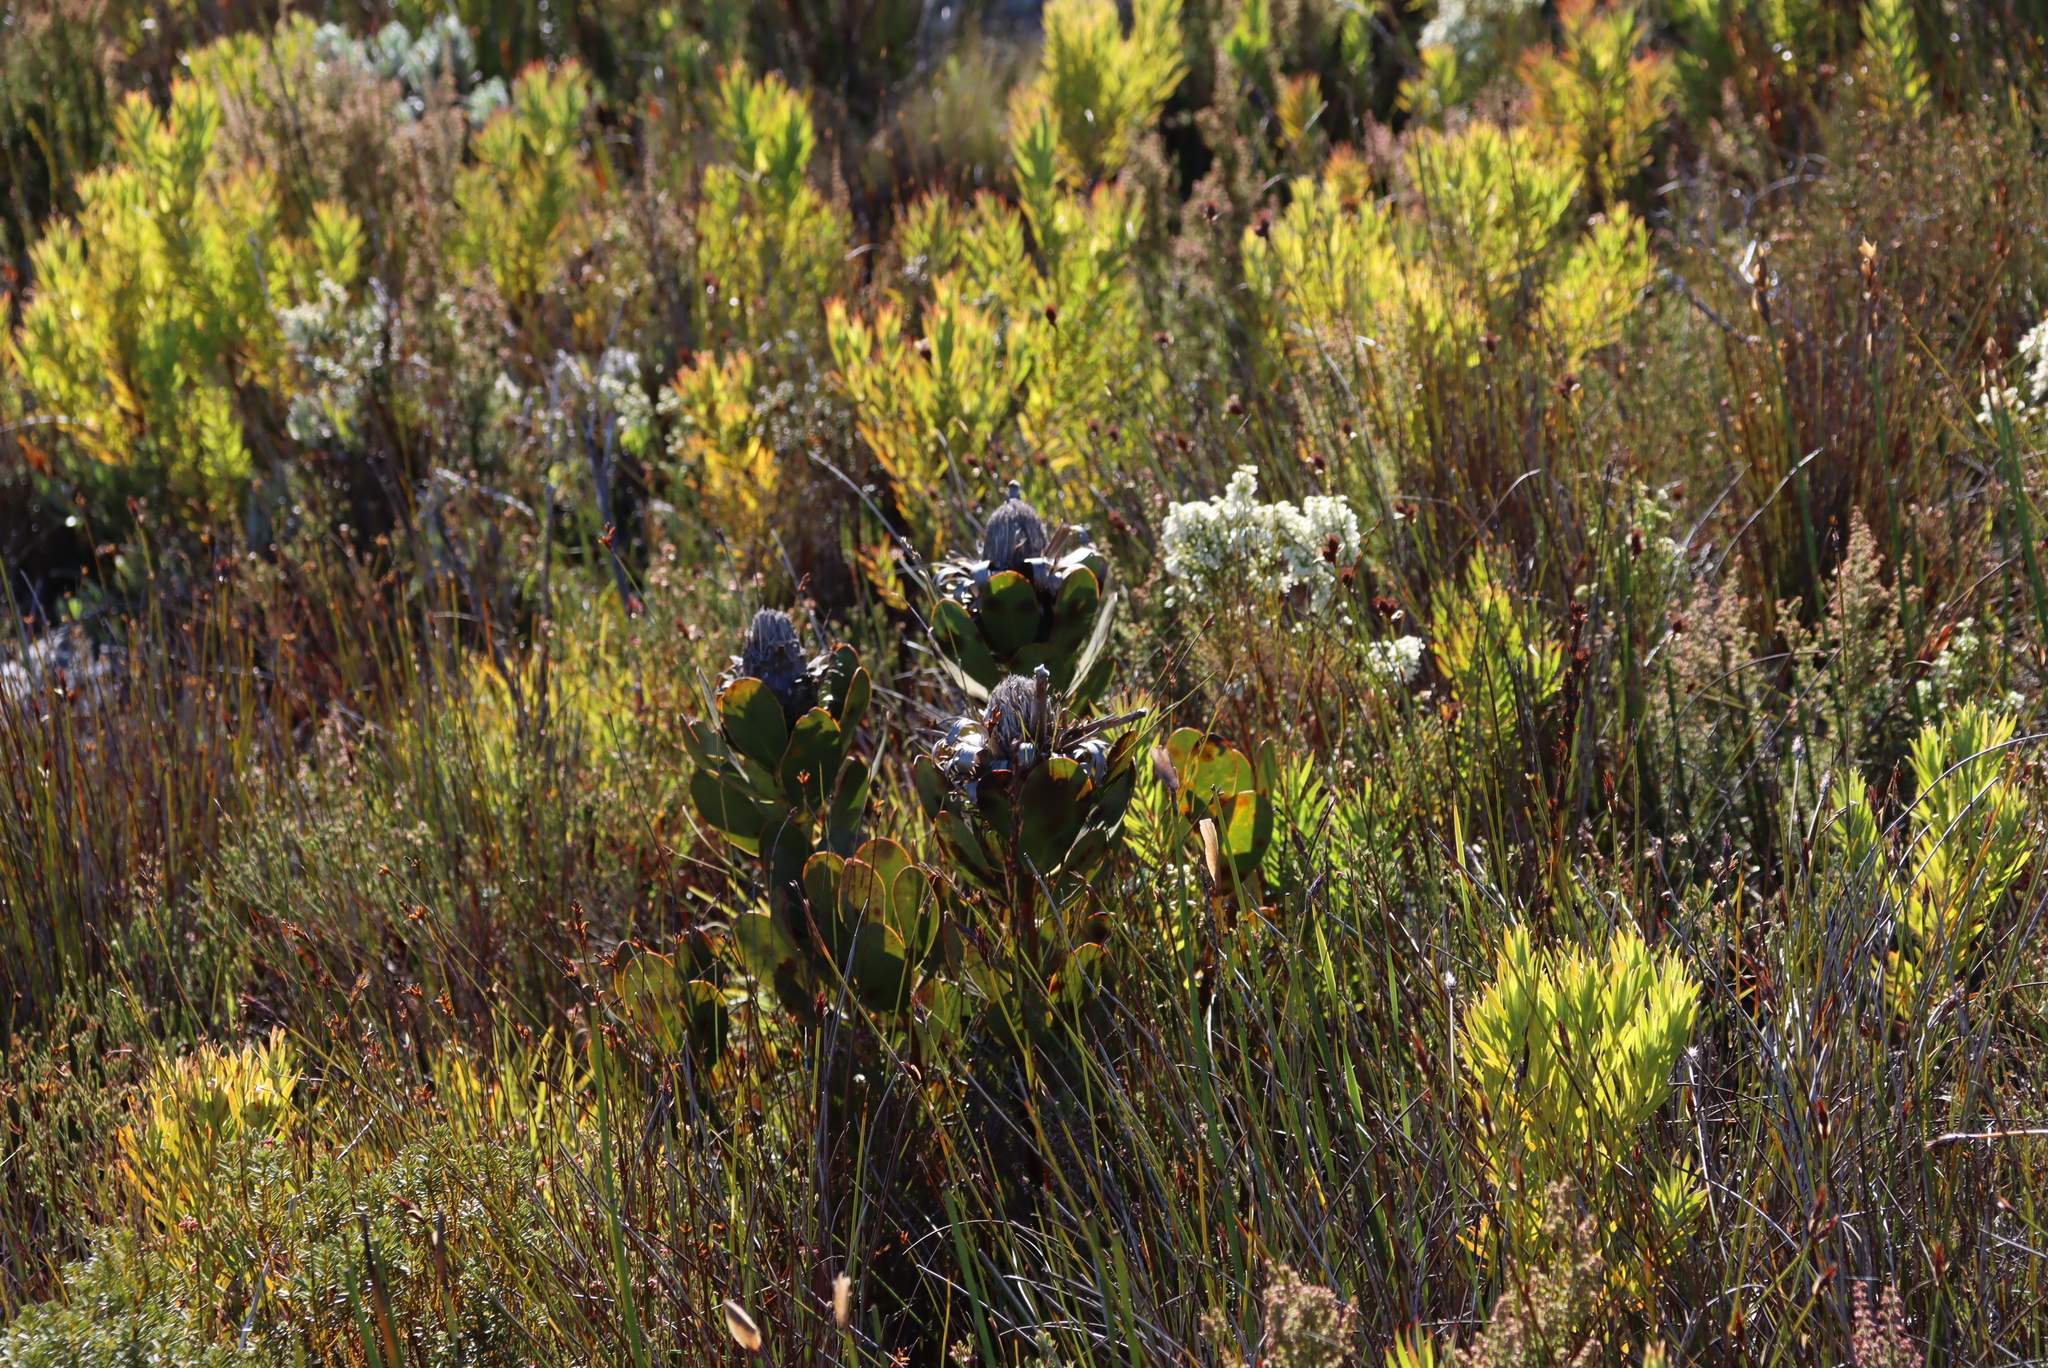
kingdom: Plantae
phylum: Tracheophyta
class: Magnoliopsida
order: Proteales
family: Proteaceae
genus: Protea
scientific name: Protea speciosa
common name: Brown-beard sugarbush
